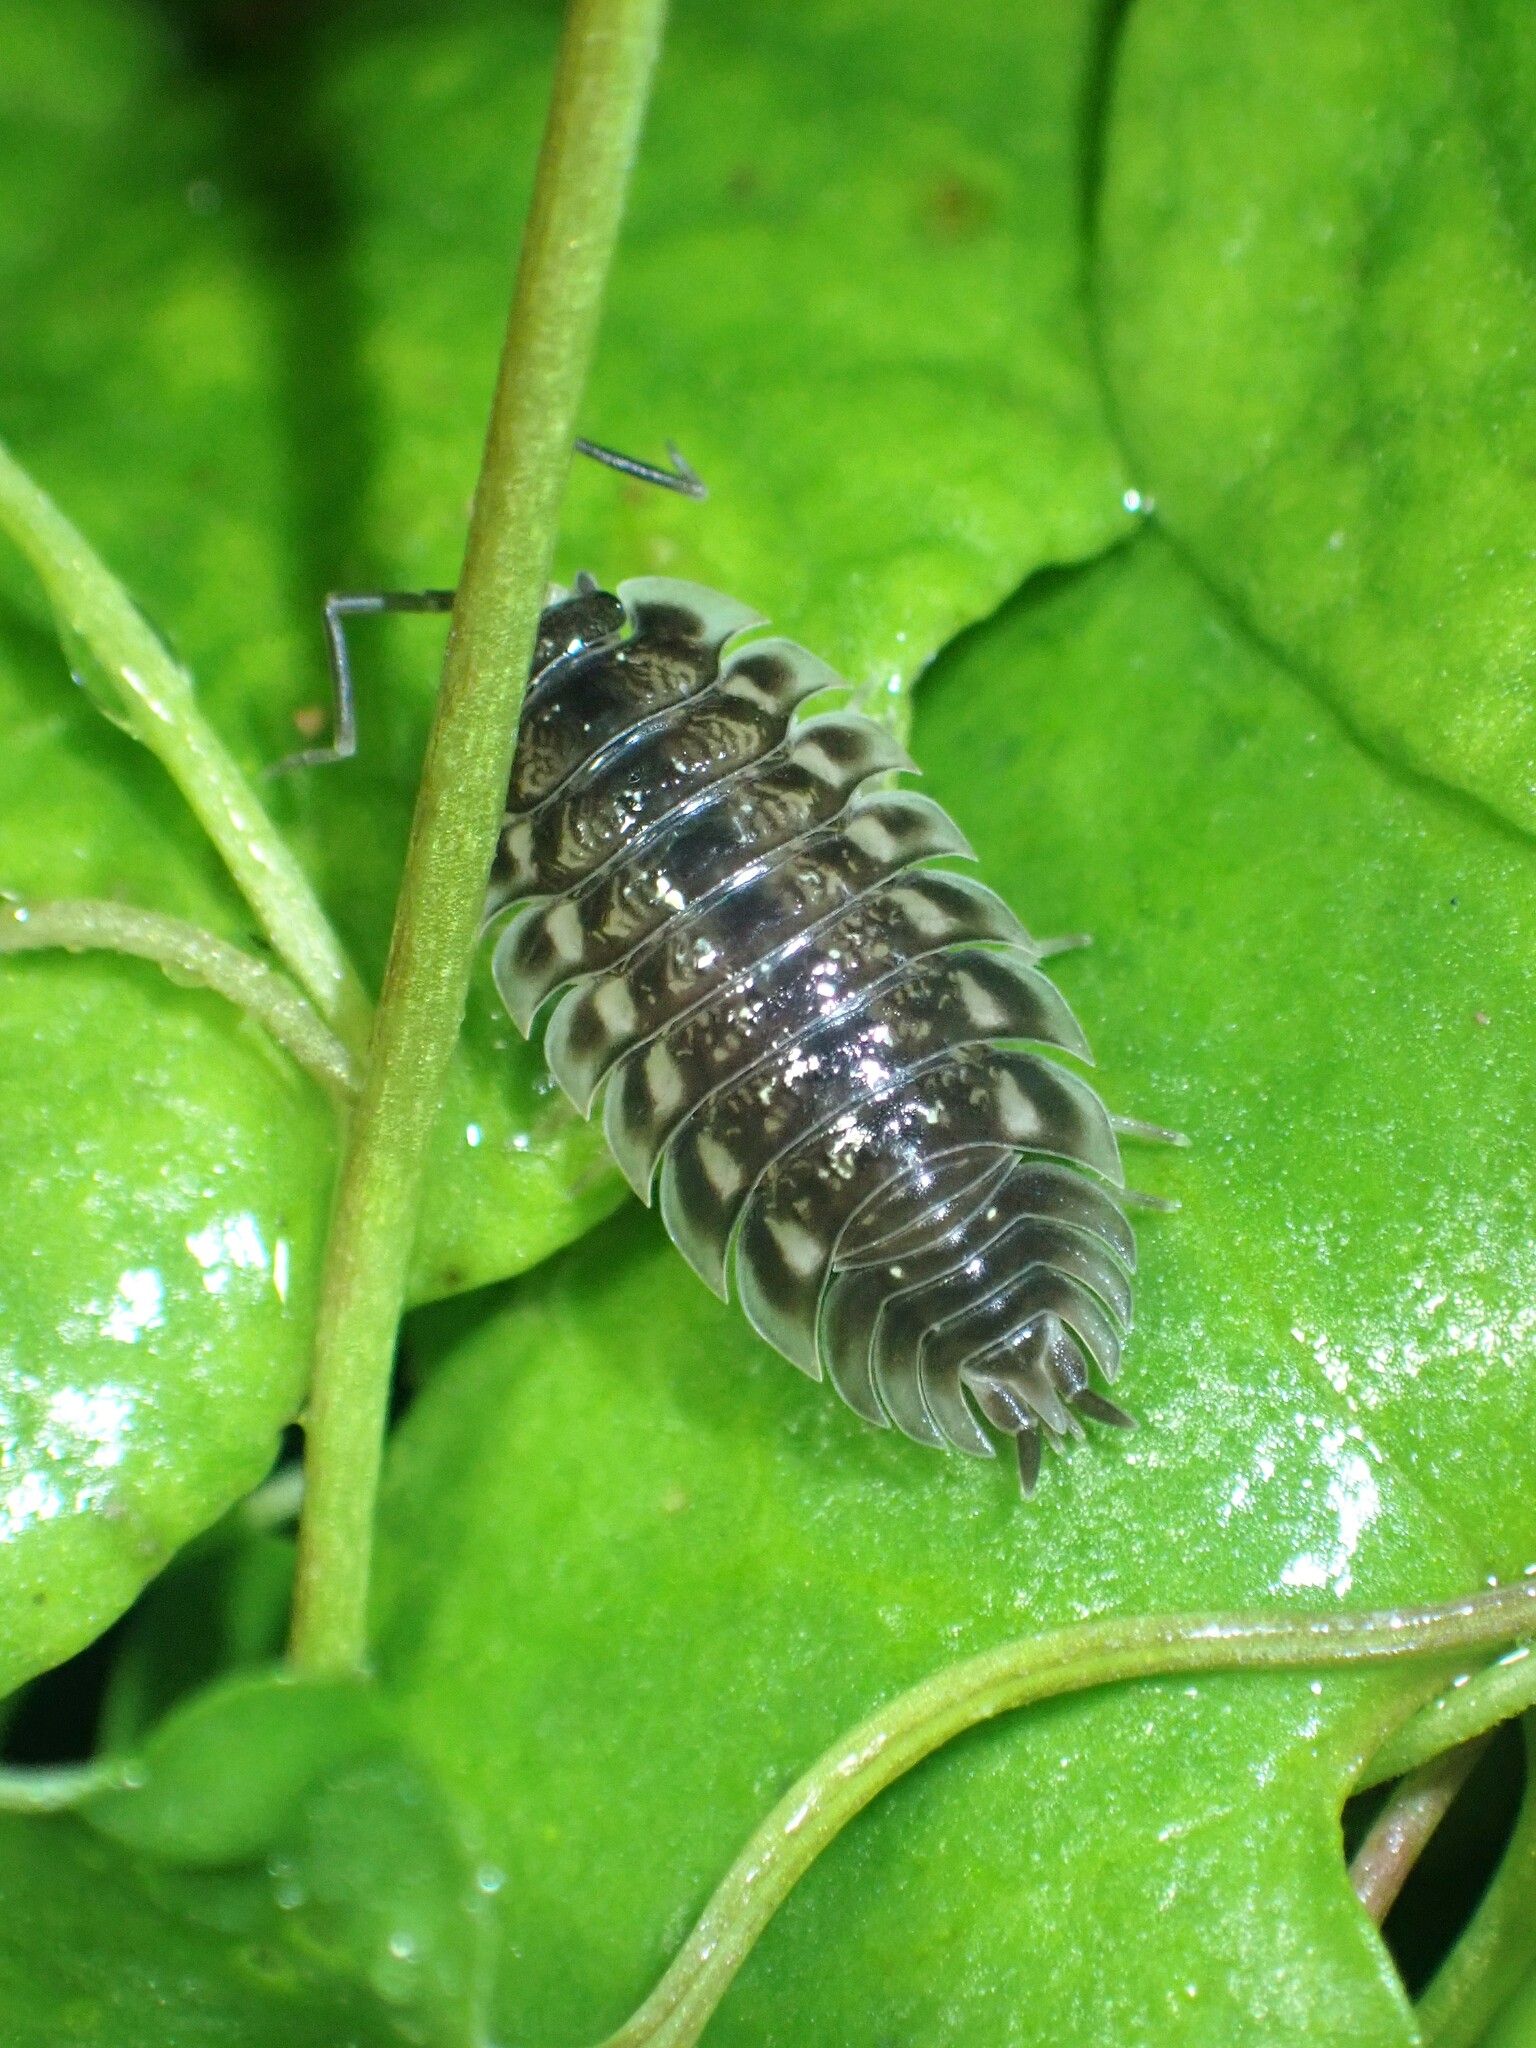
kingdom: Animalia
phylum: Arthropoda
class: Malacostraca
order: Isopoda
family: Oniscidae
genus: Oniscus
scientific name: Oniscus asellus
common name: Common shiny woodlouse
